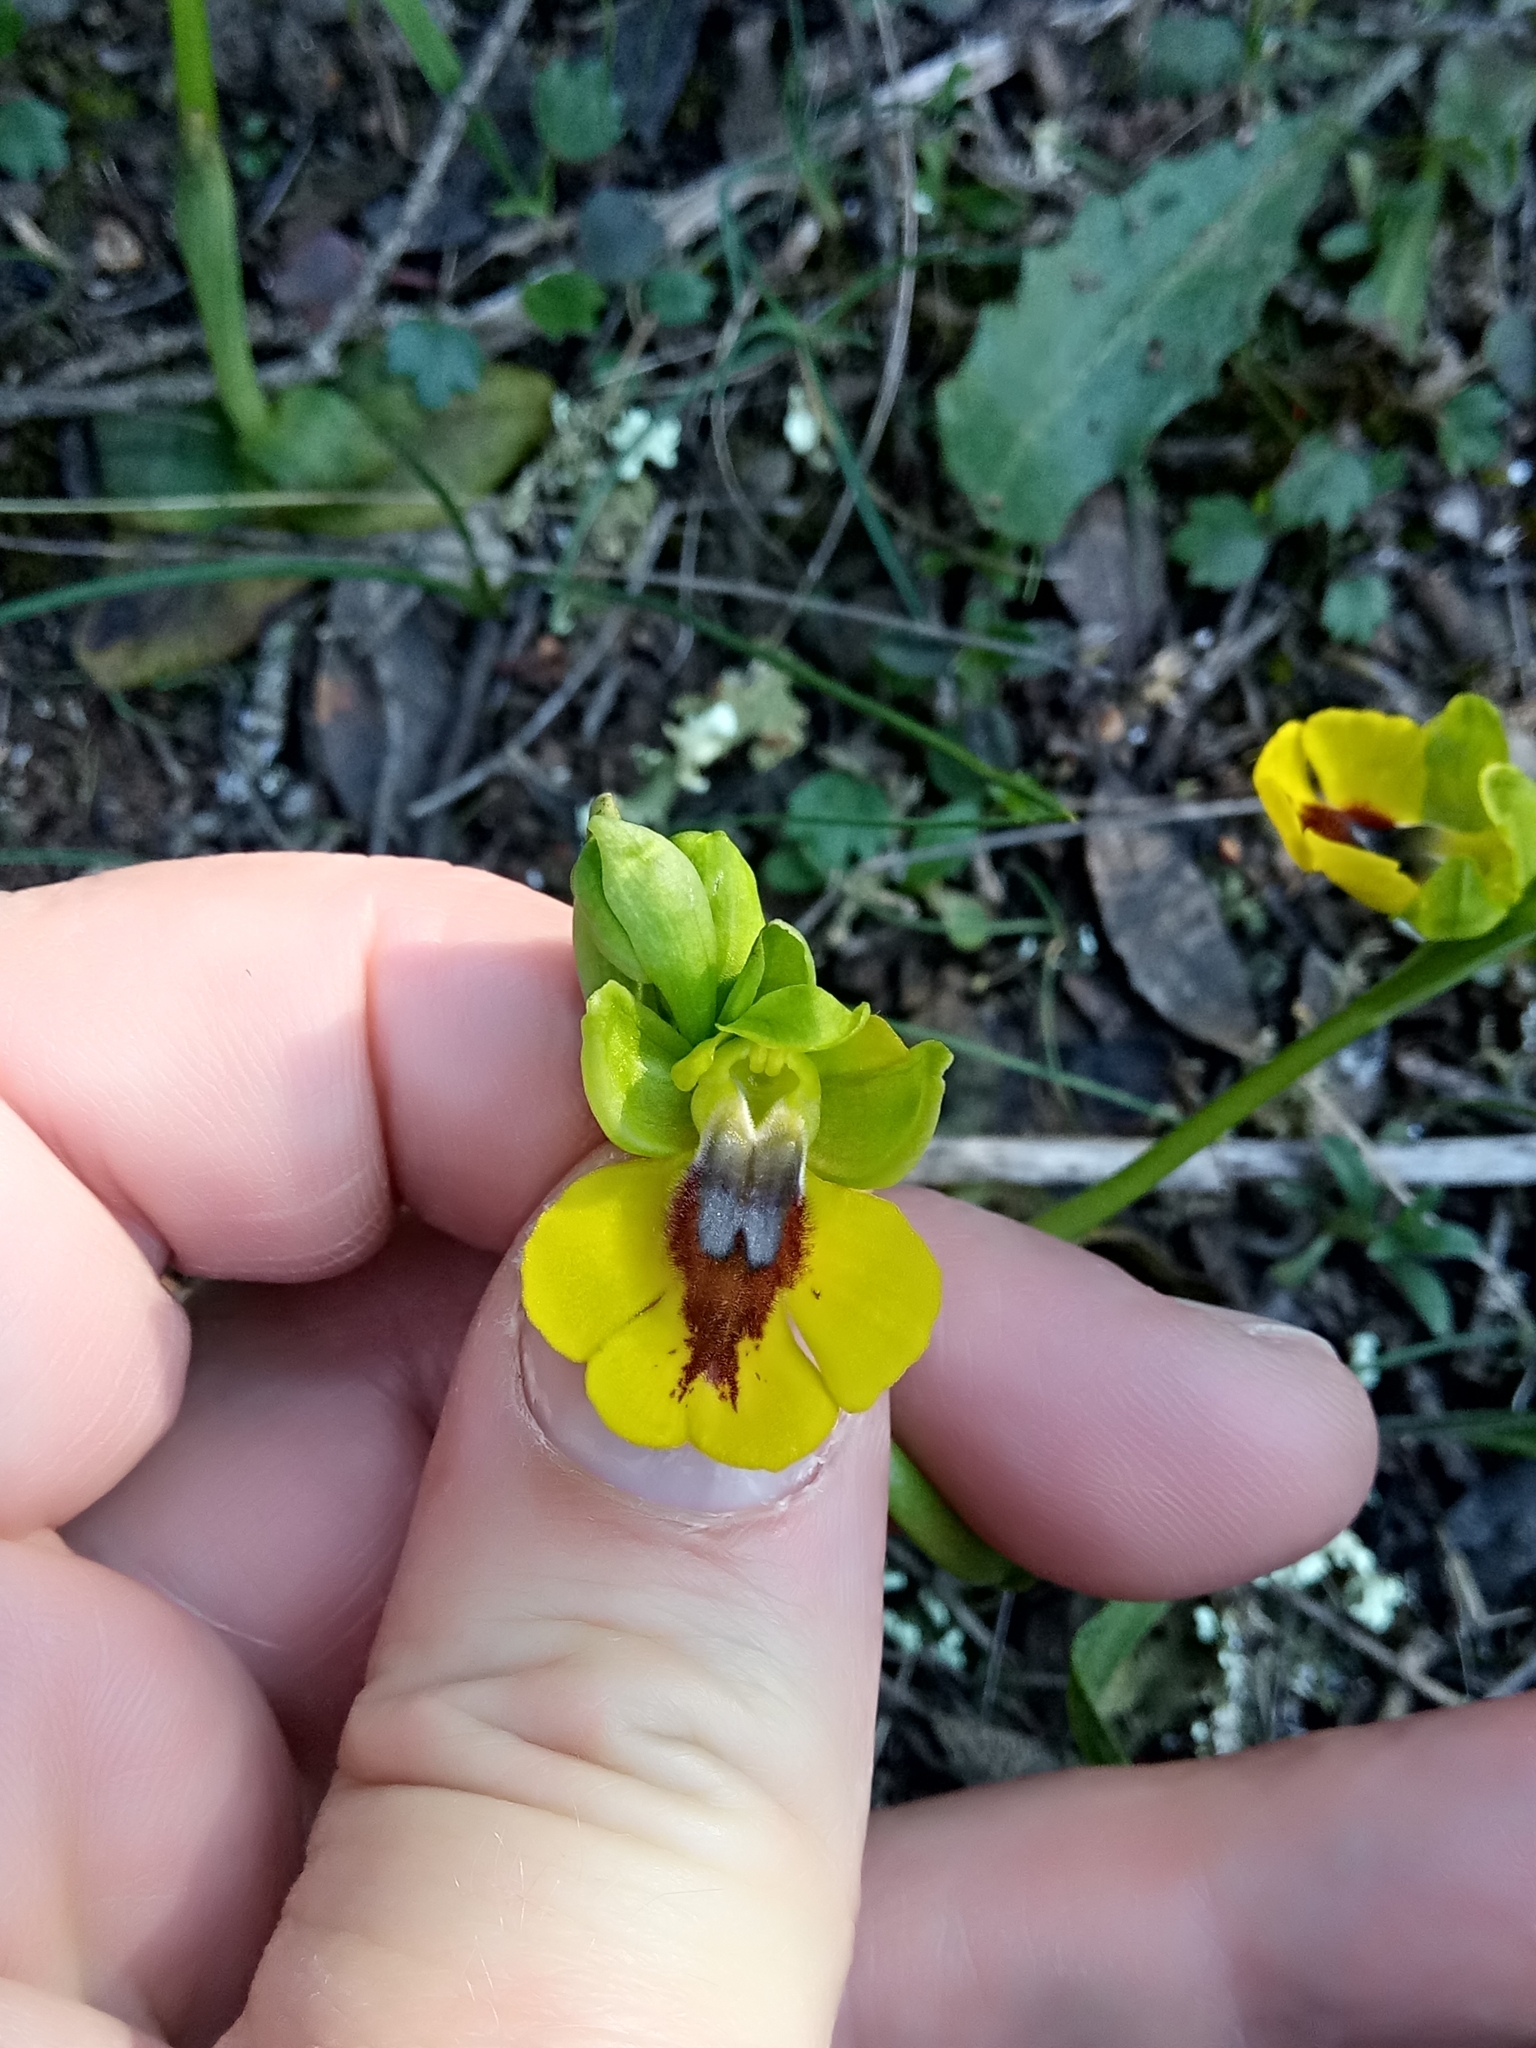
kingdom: Plantae
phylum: Tracheophyta
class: Liliopsida
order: Asparagales
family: Orchidaceae
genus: Ophrys
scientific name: Ophrys lutea
